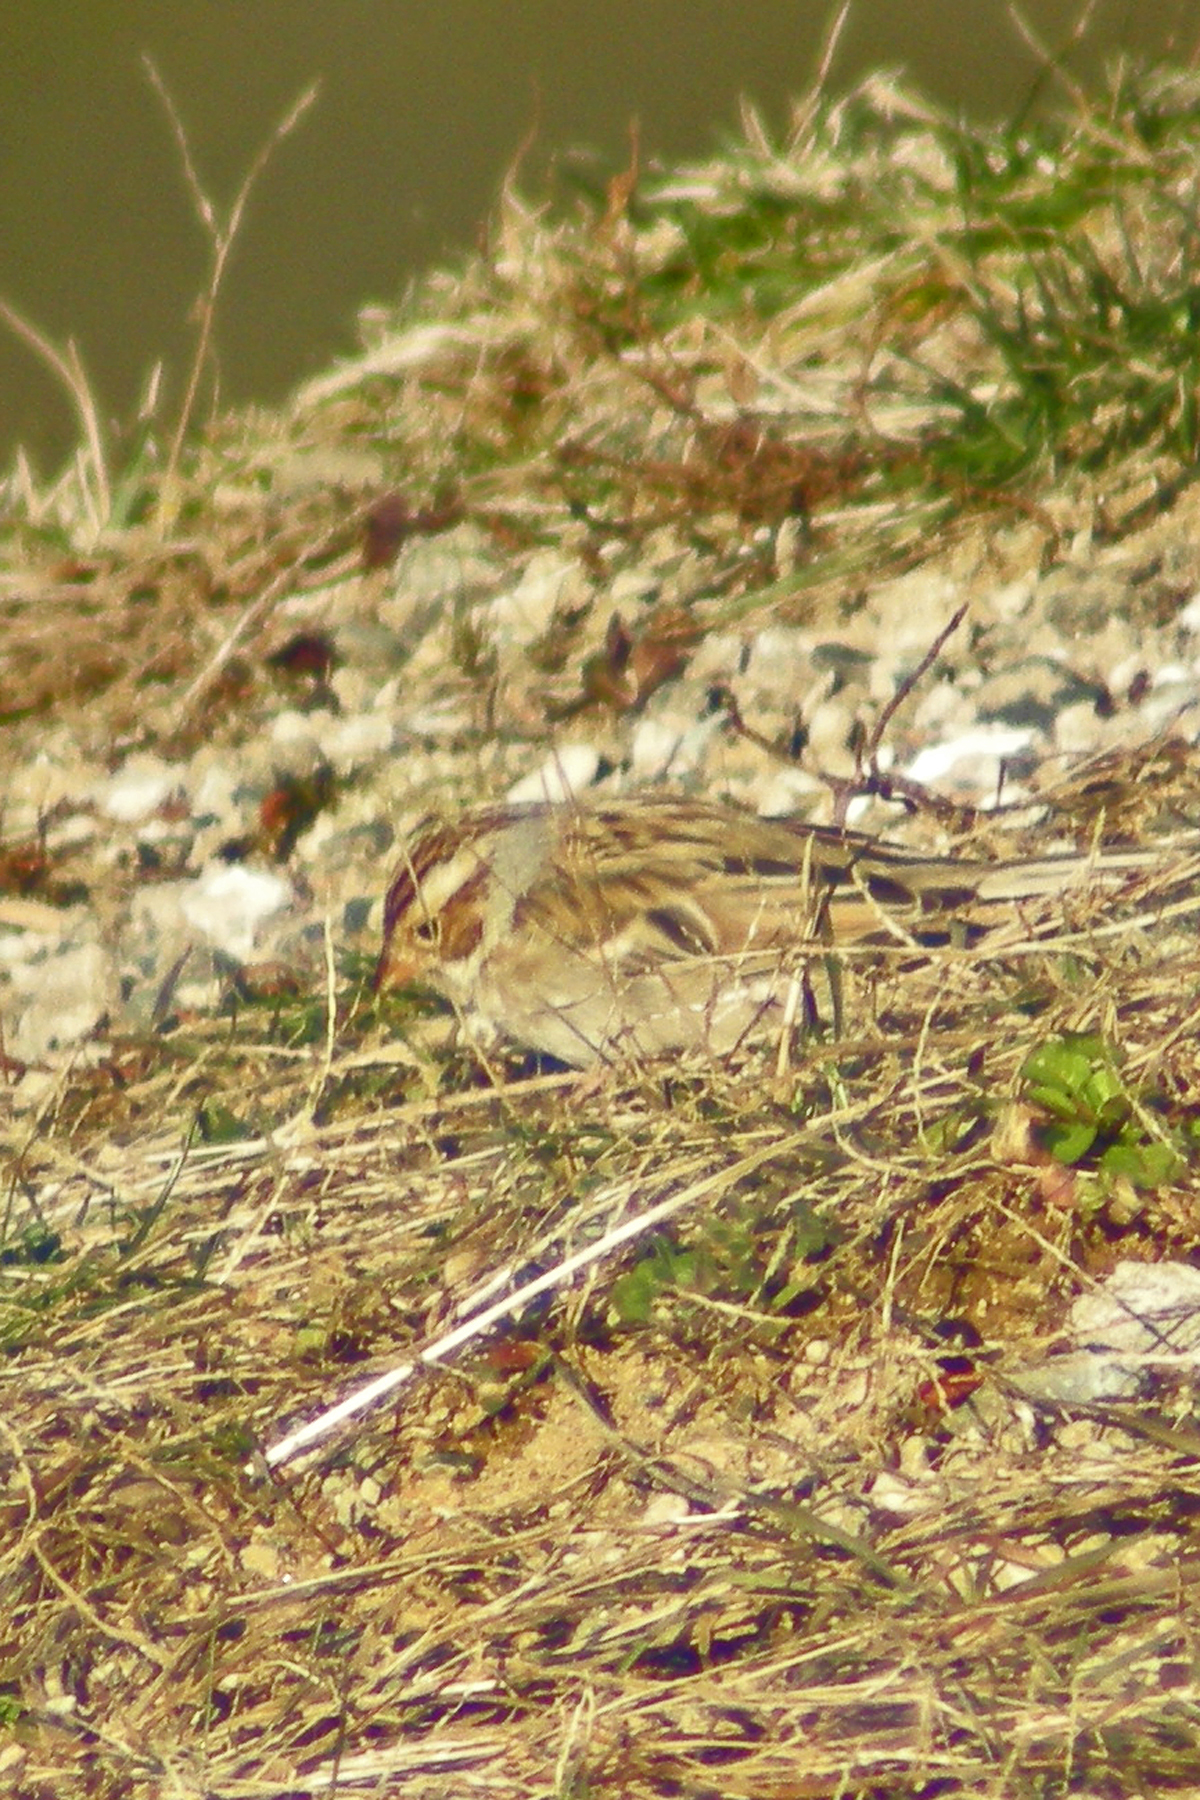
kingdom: Animalia
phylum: Chordata
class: Aves
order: Passeriformes
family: Passerellidae
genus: Spizella
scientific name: Spizella pallida
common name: Clay-colored sparrow
